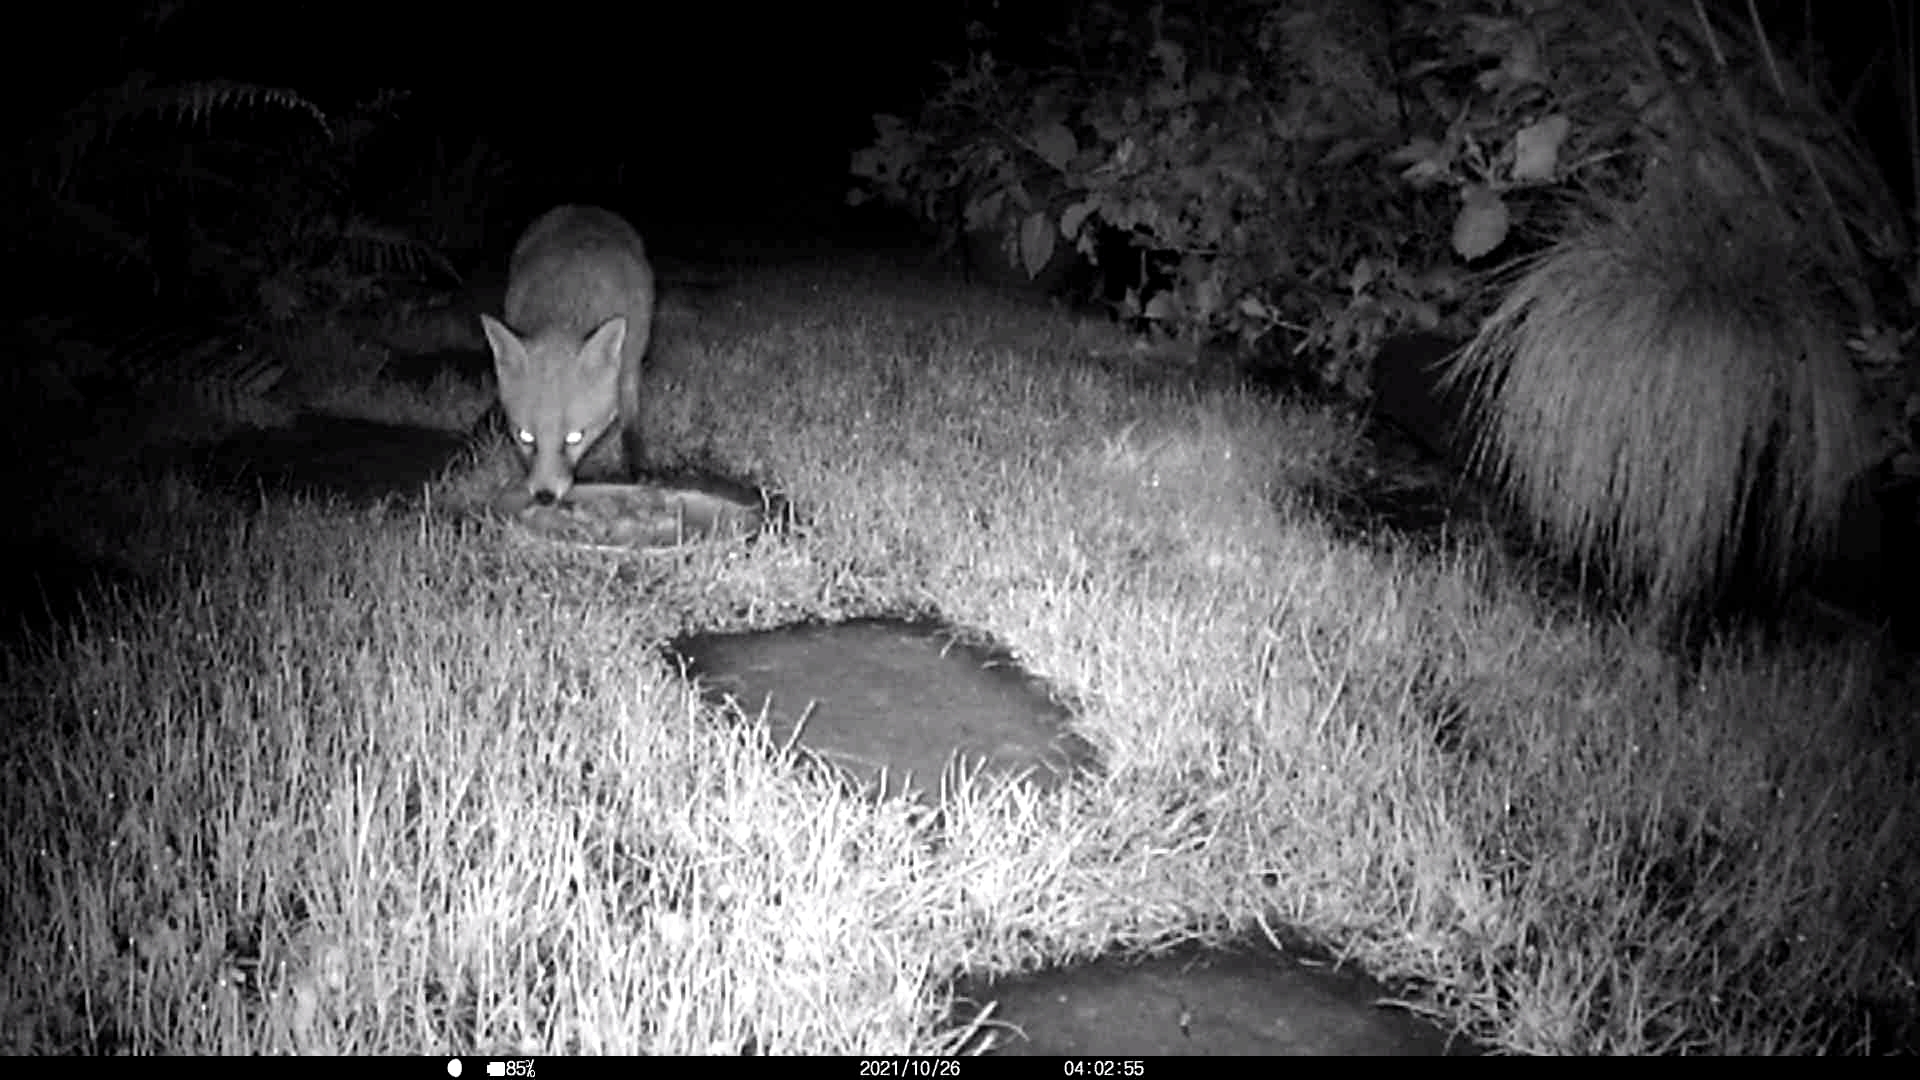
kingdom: Animalia
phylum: Chordata
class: Mammalia
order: Carnivora
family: Canidae
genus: Vulpes
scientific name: Vulpes vulpes
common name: Red fox
